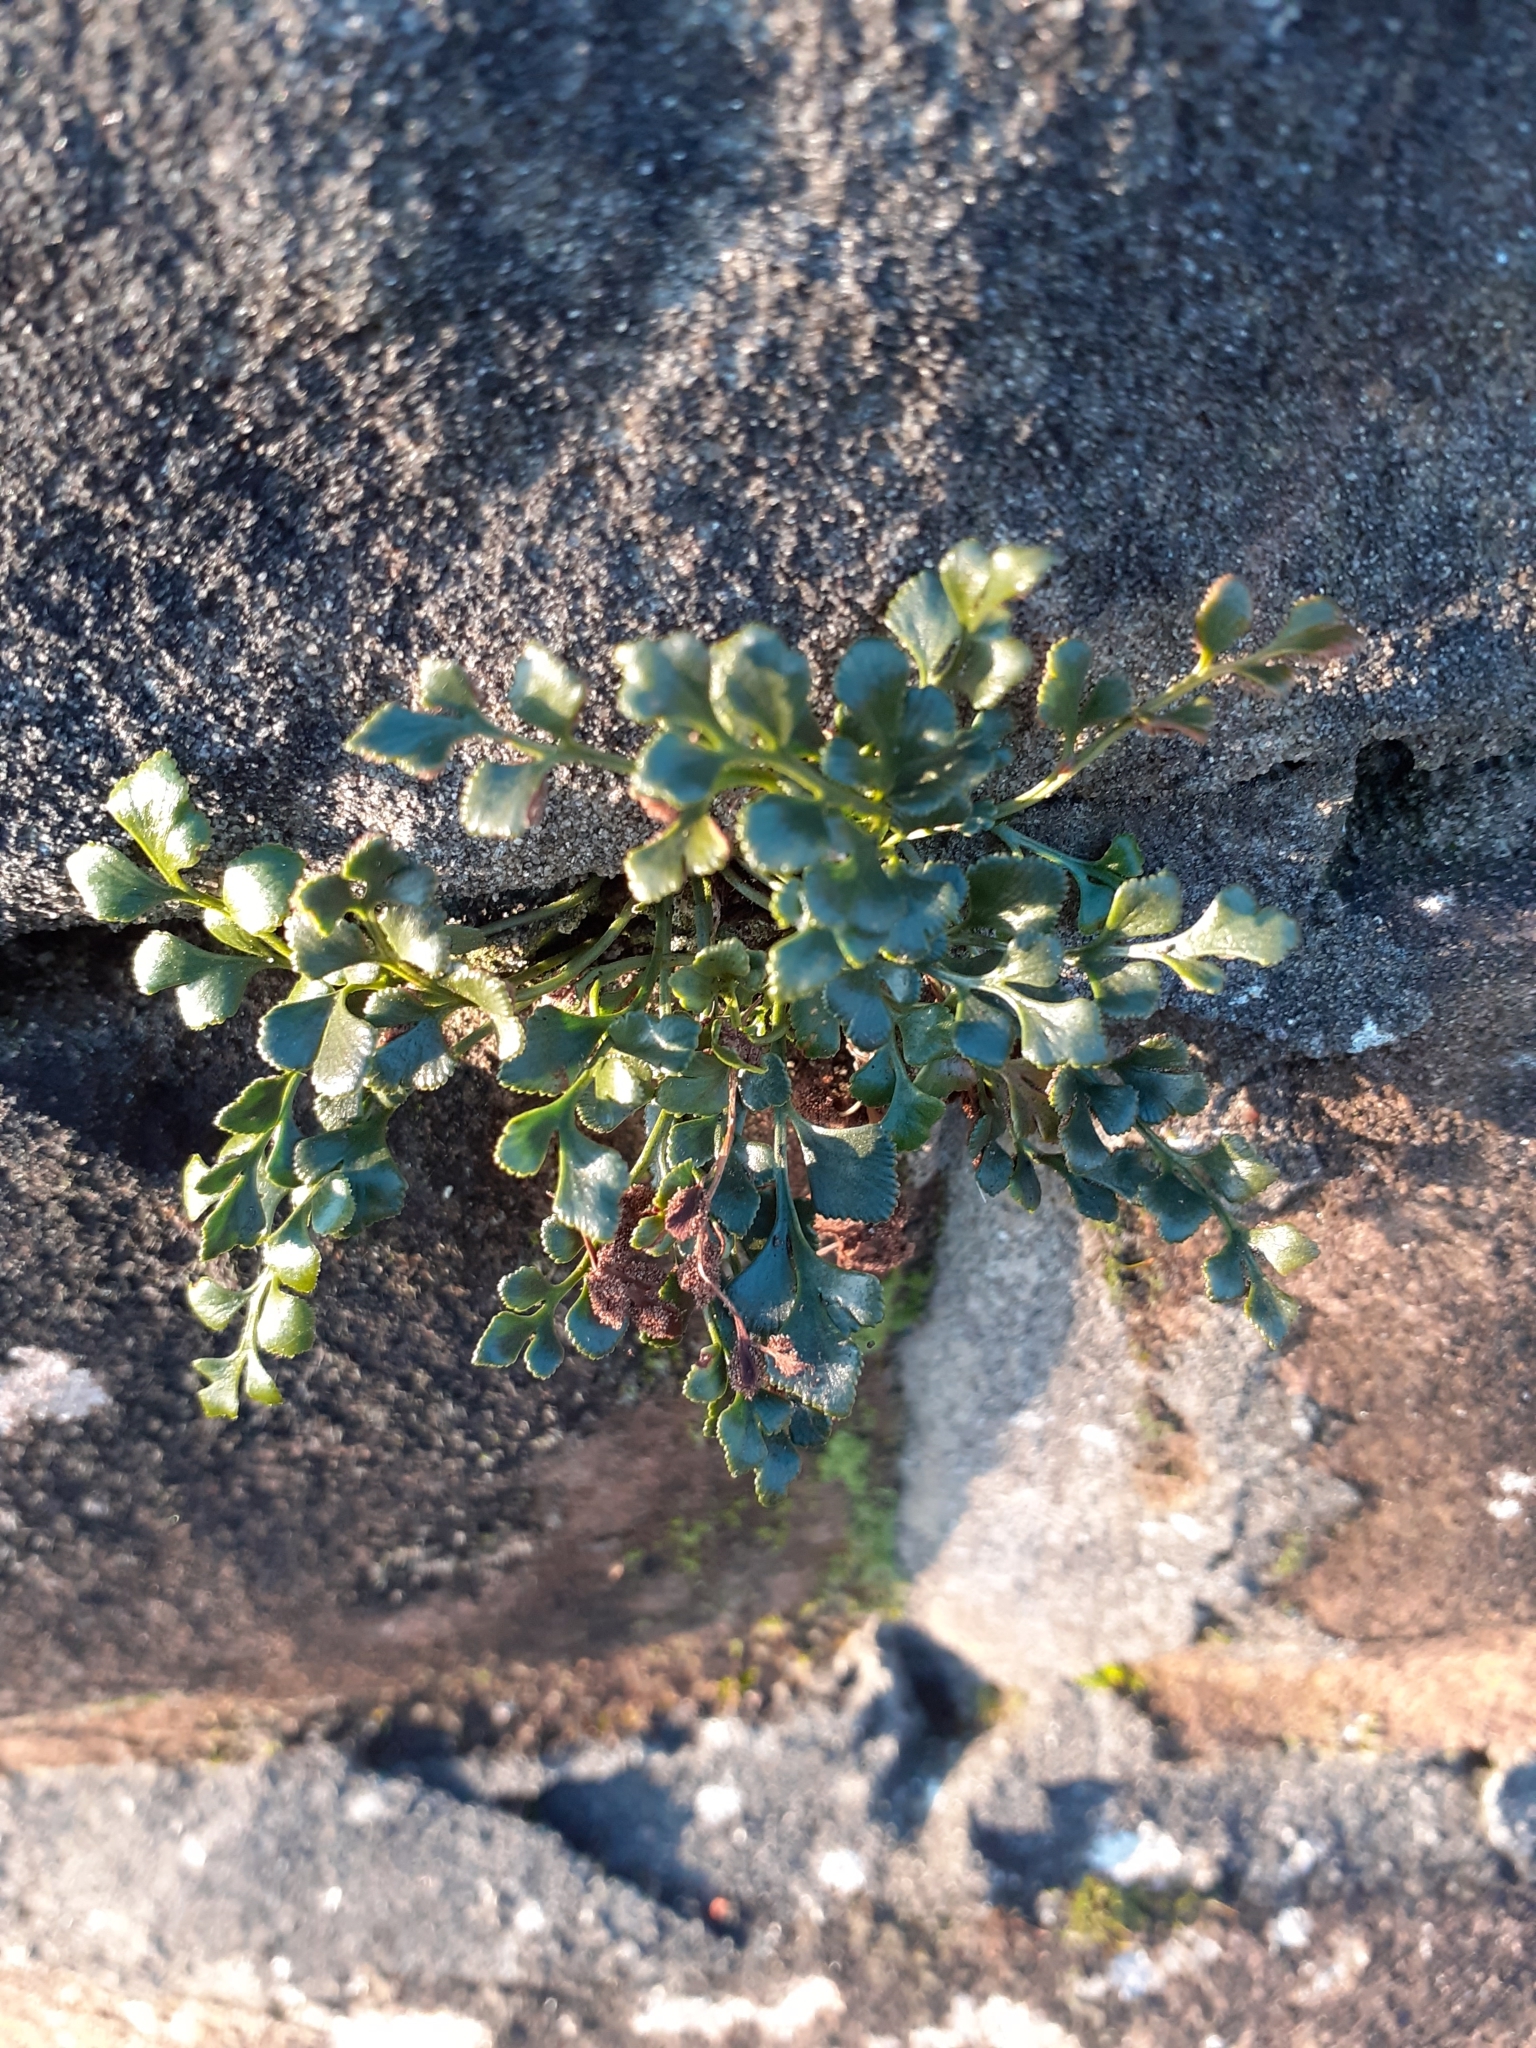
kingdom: Plantae
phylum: Tracheophyta
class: Polypodiopsida
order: Polypodiales
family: Aspleniaceae
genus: Asplenium
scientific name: Asplenium ruta-muraria
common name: Wall-rue
